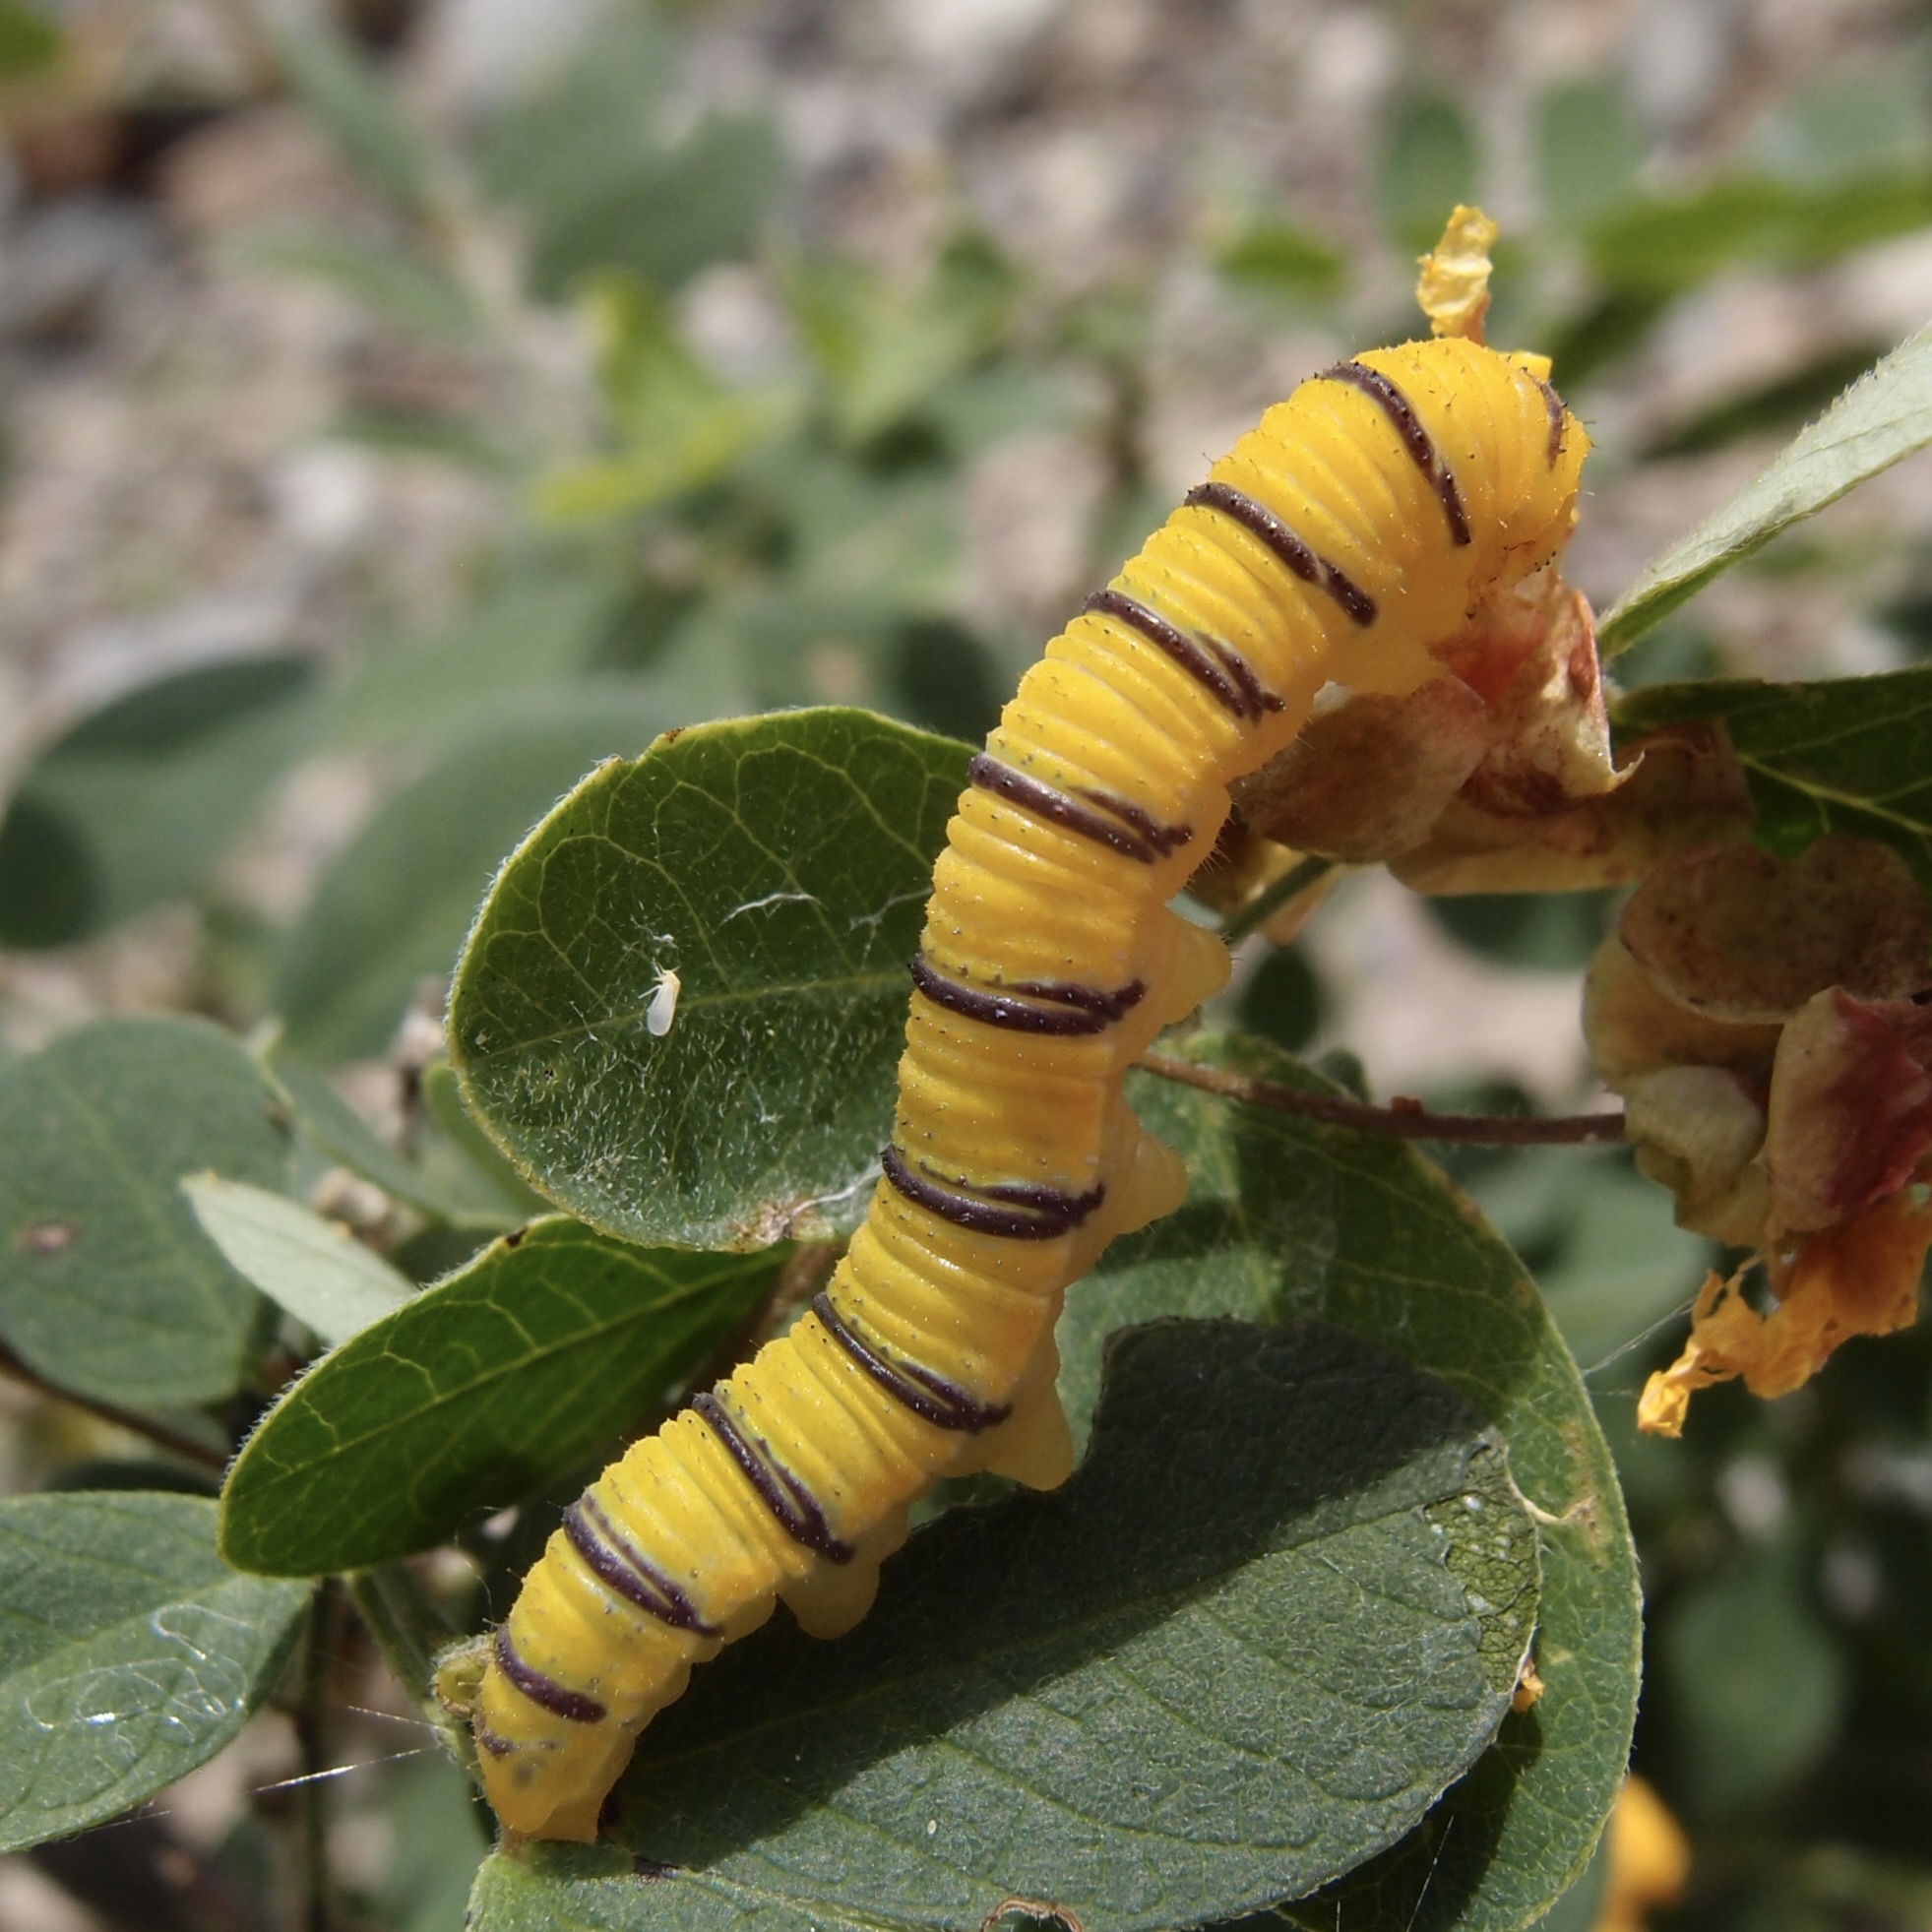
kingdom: Animalia
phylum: Arthropoda
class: Insecta
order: Lepidoptera
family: Pieridae
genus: Phoebis
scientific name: Phoebis marcellina
